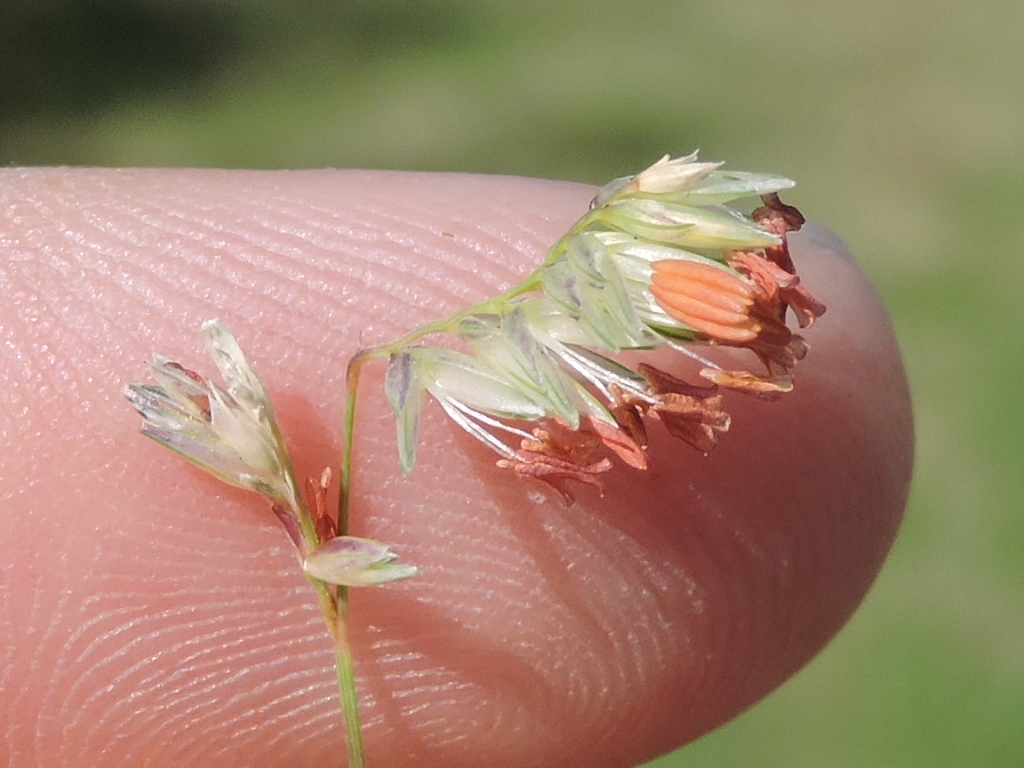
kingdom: Plantae
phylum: Tracheophyta
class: Liliopsida
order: Poales
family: Poaceae
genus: Bouteloua
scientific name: Bouteloua dactyloides
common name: Buffalo grass
